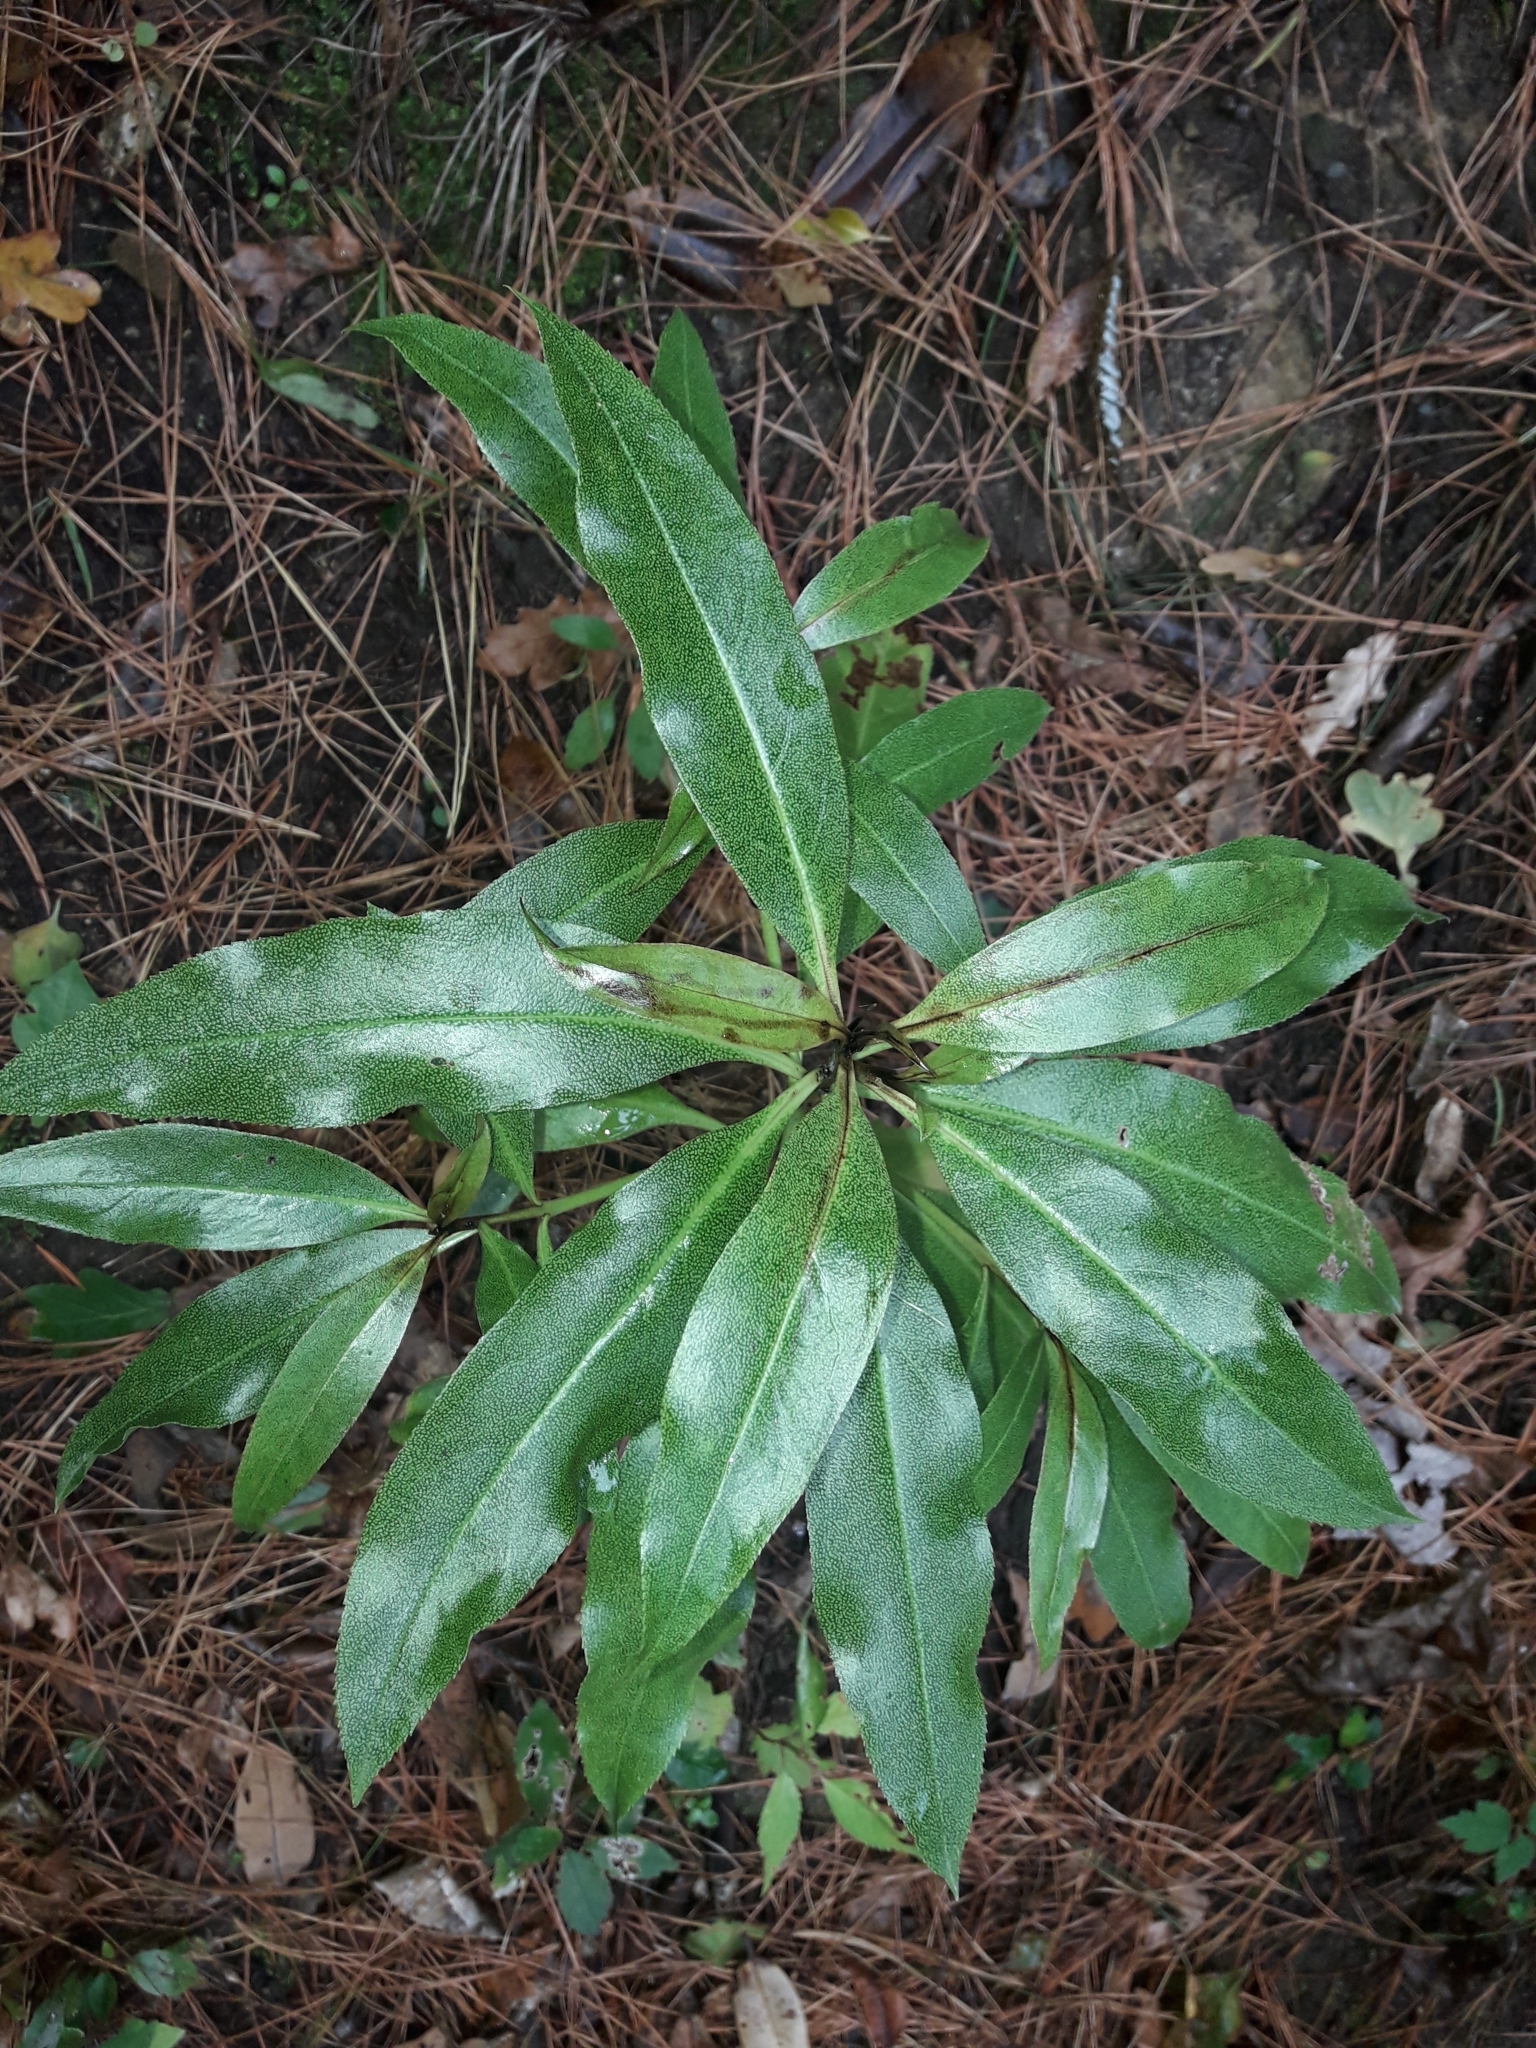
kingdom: Plantae
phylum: Tracheophyta
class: Magnoliopsida
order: Lamiales
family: Scrophulariaceae
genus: Myoporum
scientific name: Myoporum laetum
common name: Ngaio tree
